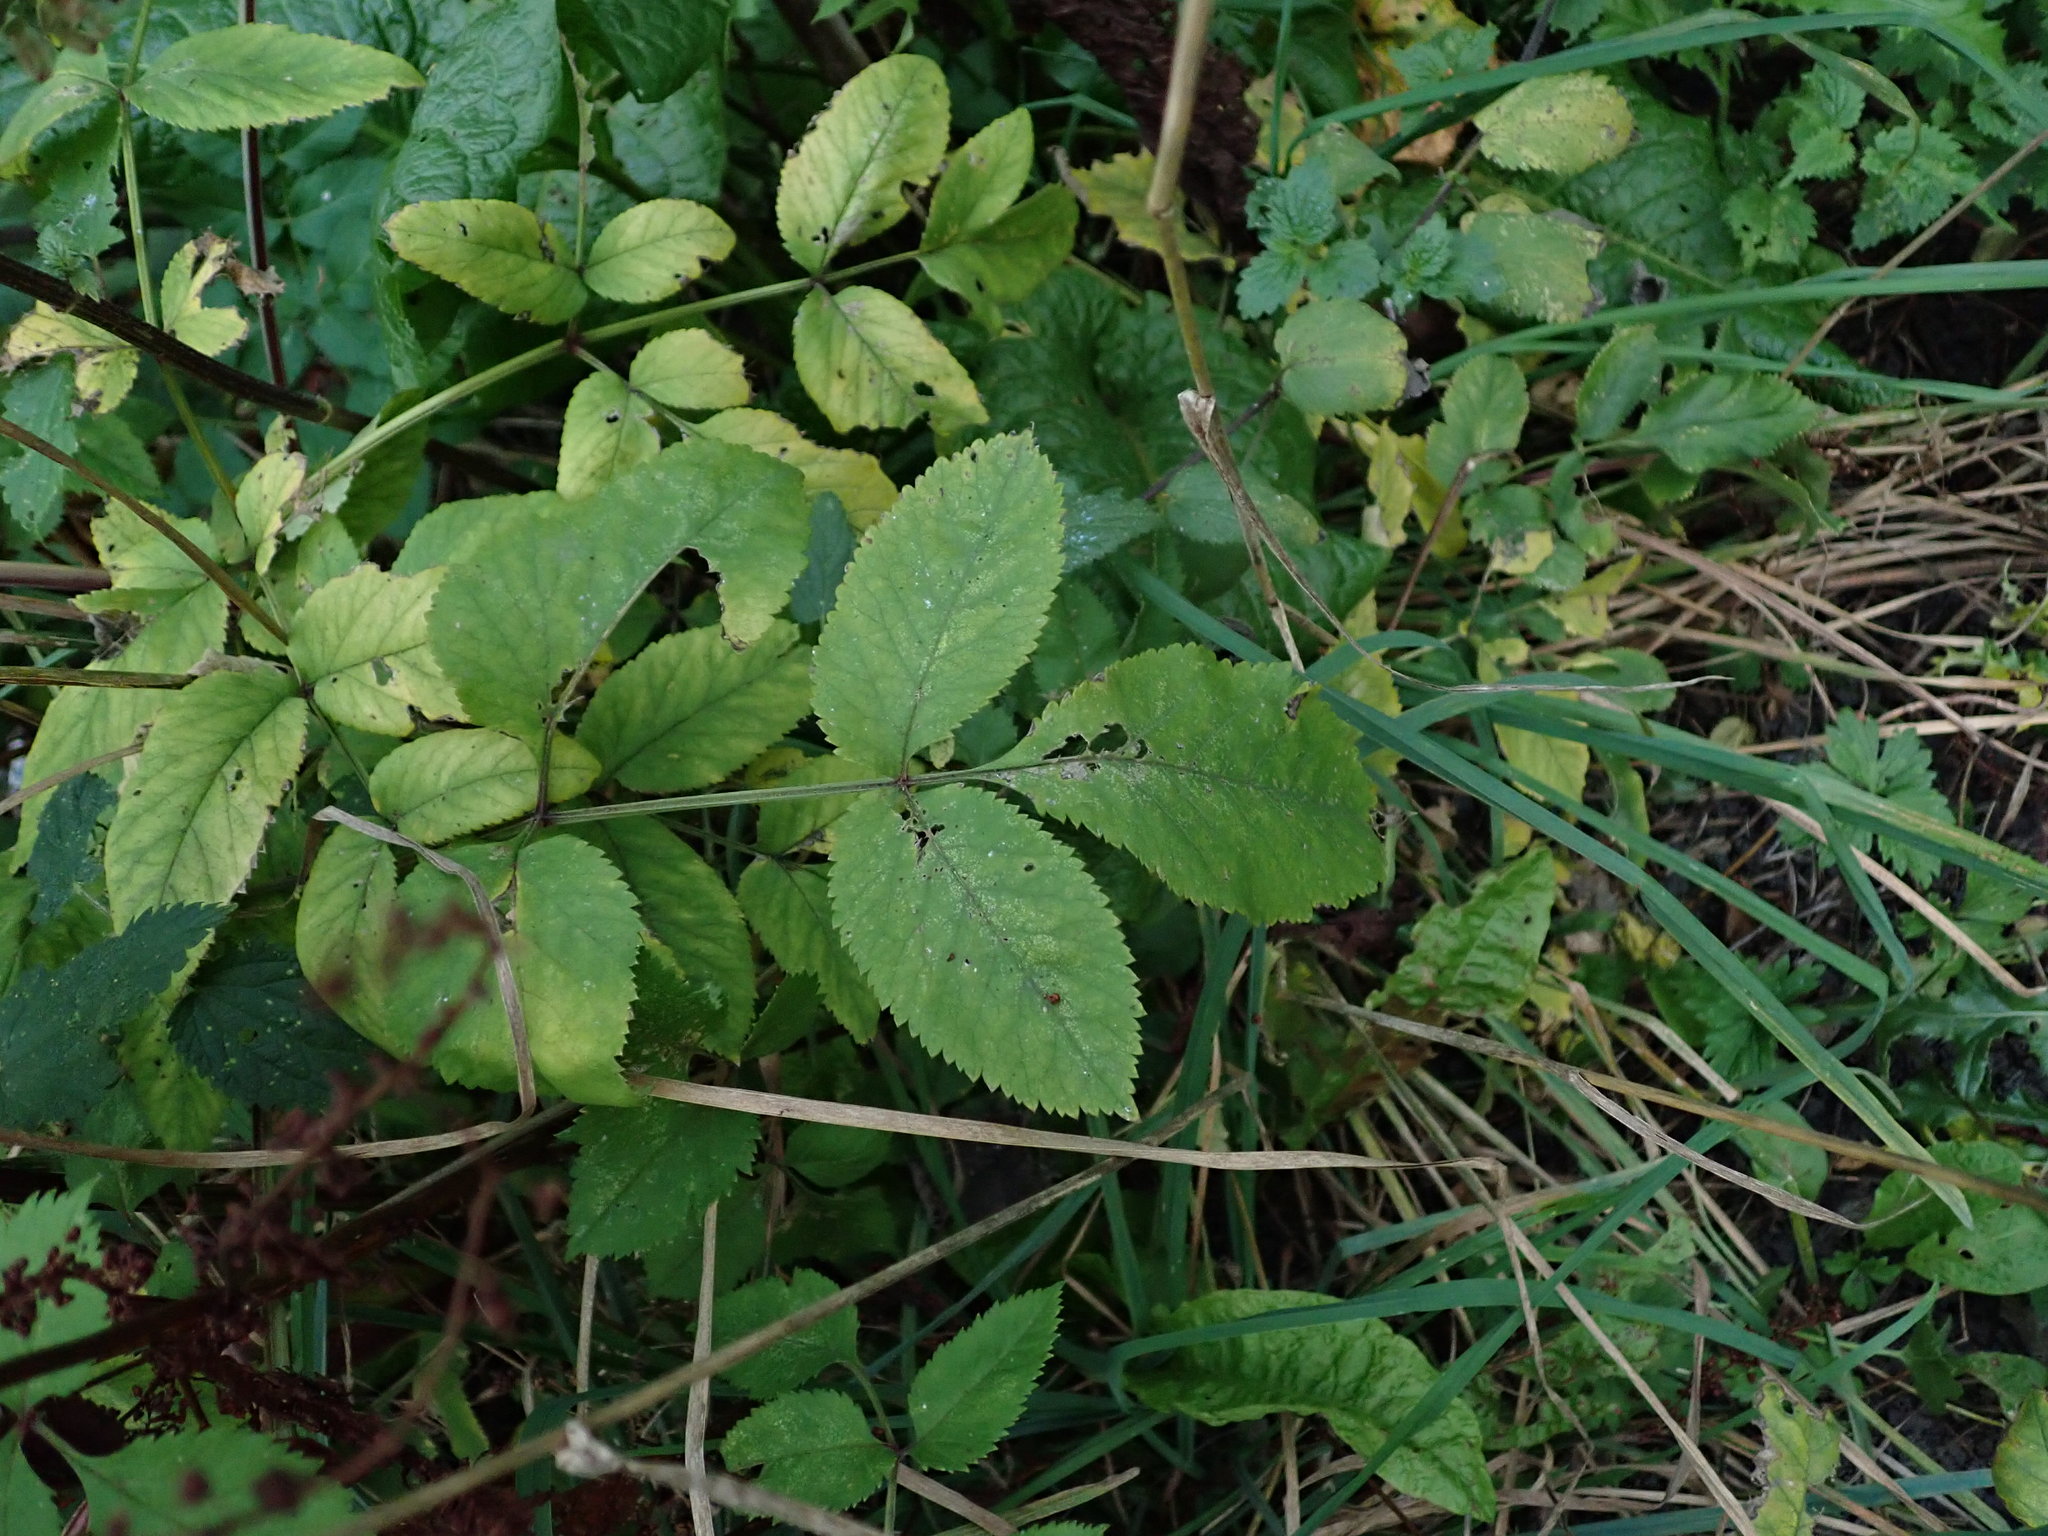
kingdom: Plantae
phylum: Tracheophyta
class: Magnoliopsida
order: Apiales
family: Apiaceae
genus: Angelica
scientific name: Angelica sylvestris
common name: Wild angelica
